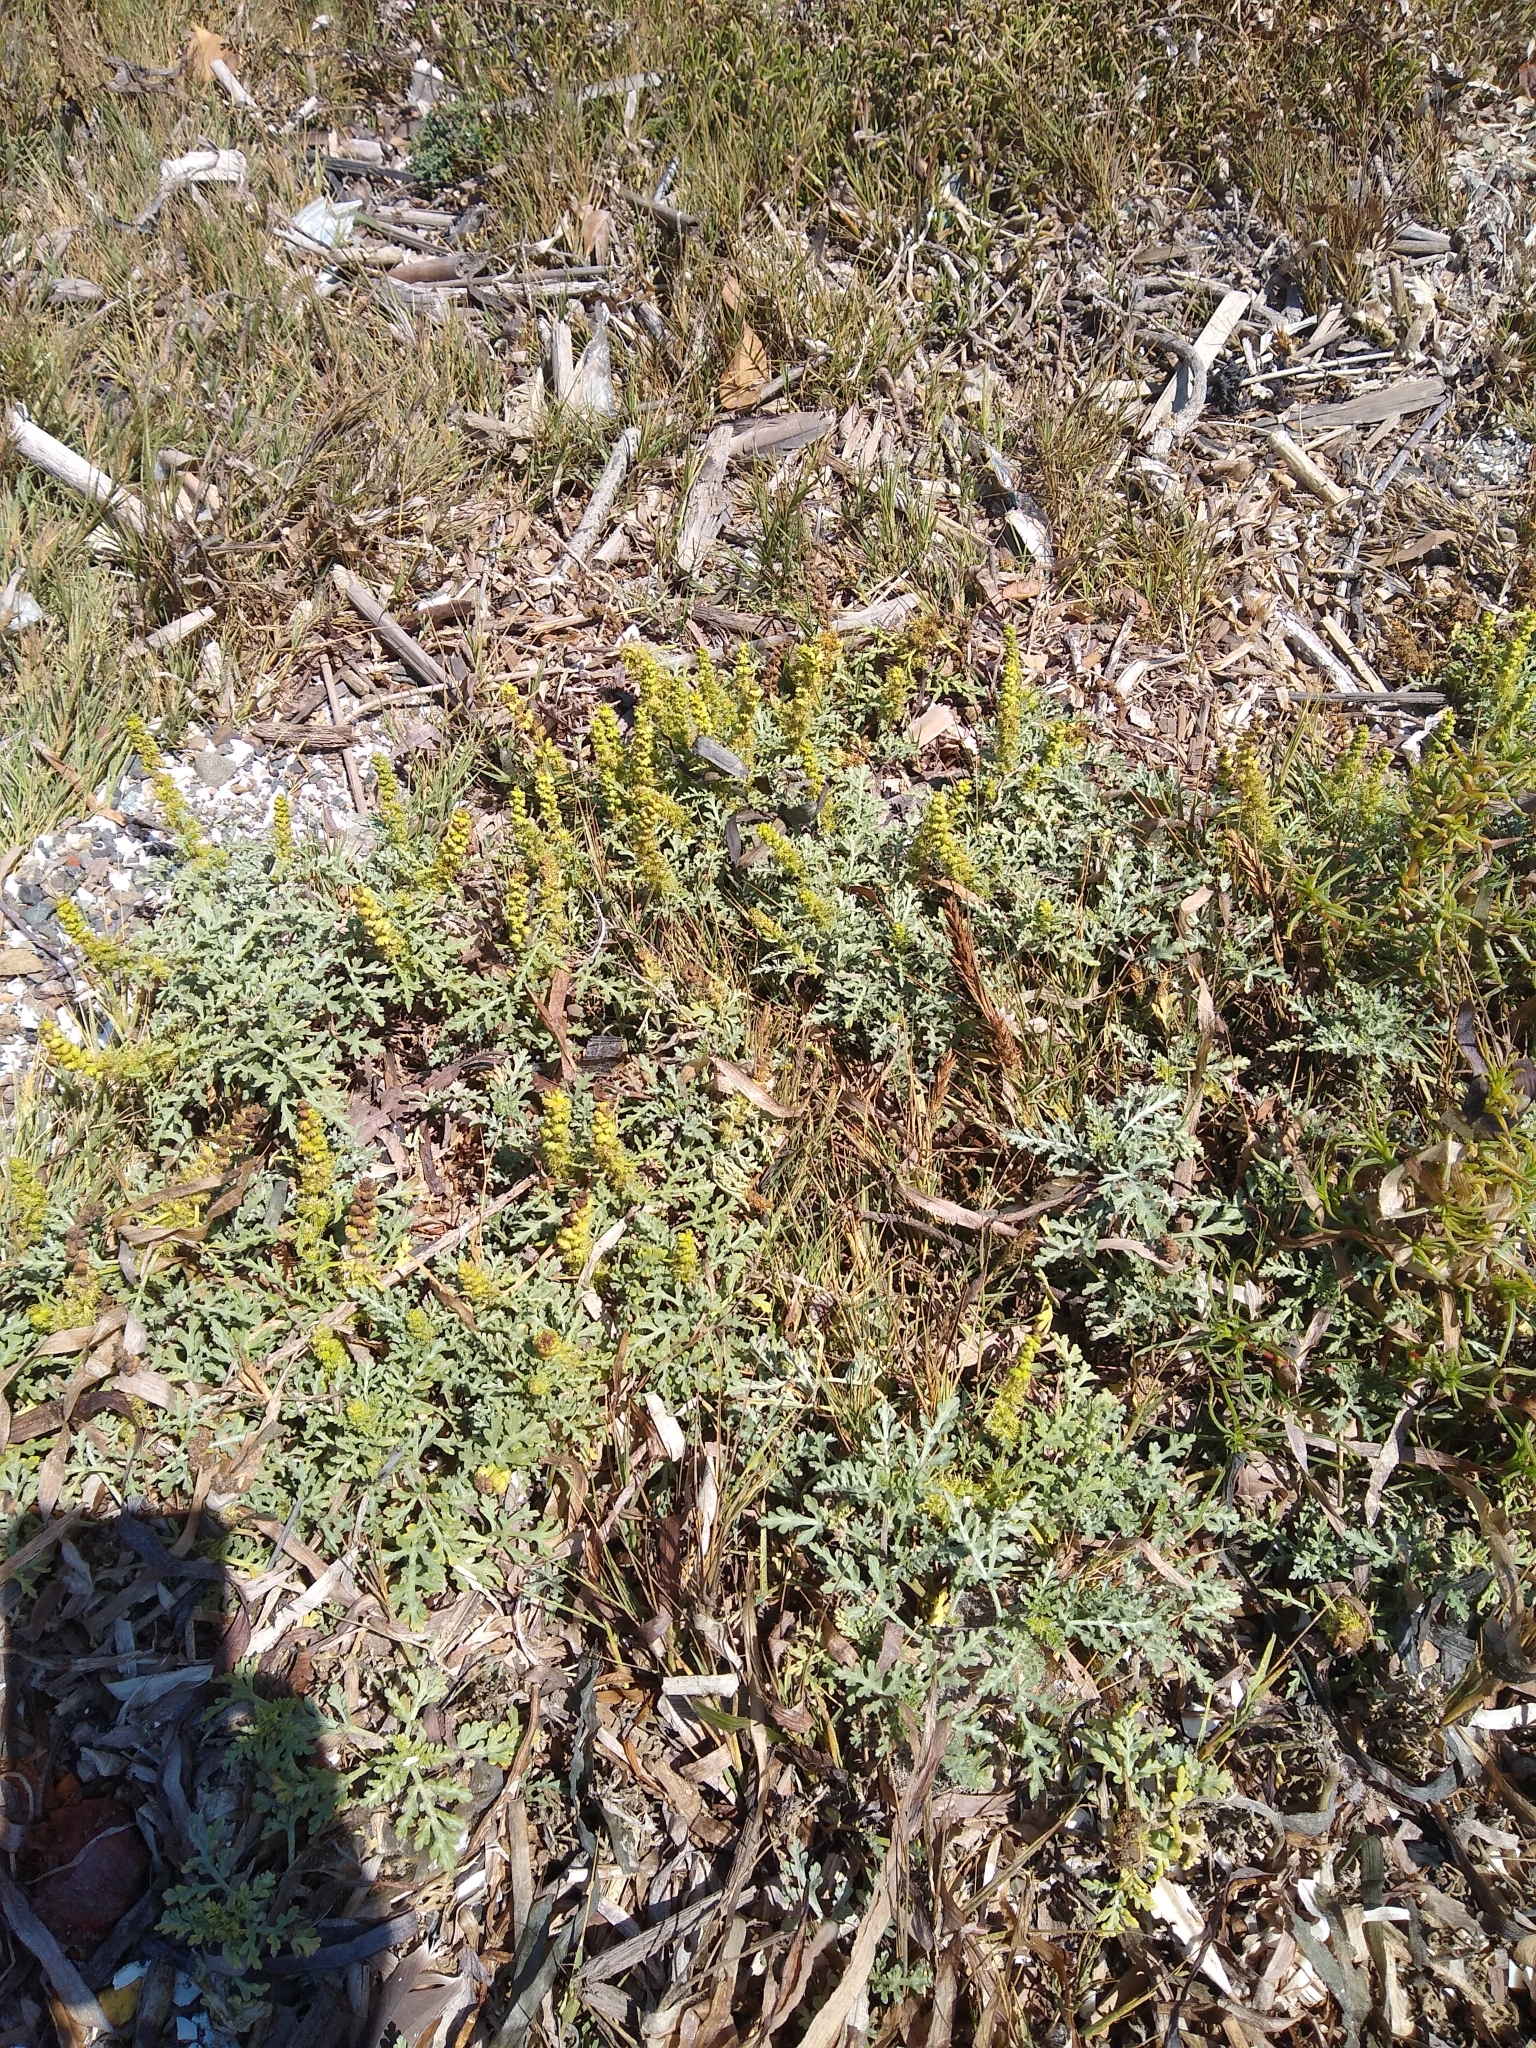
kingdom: Plantae
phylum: Tracheophyta
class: Magnoliopsida
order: Asterales
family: Asteraceae
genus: Ambrosia
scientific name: Ambrosia chamissonis
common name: Beachbur
